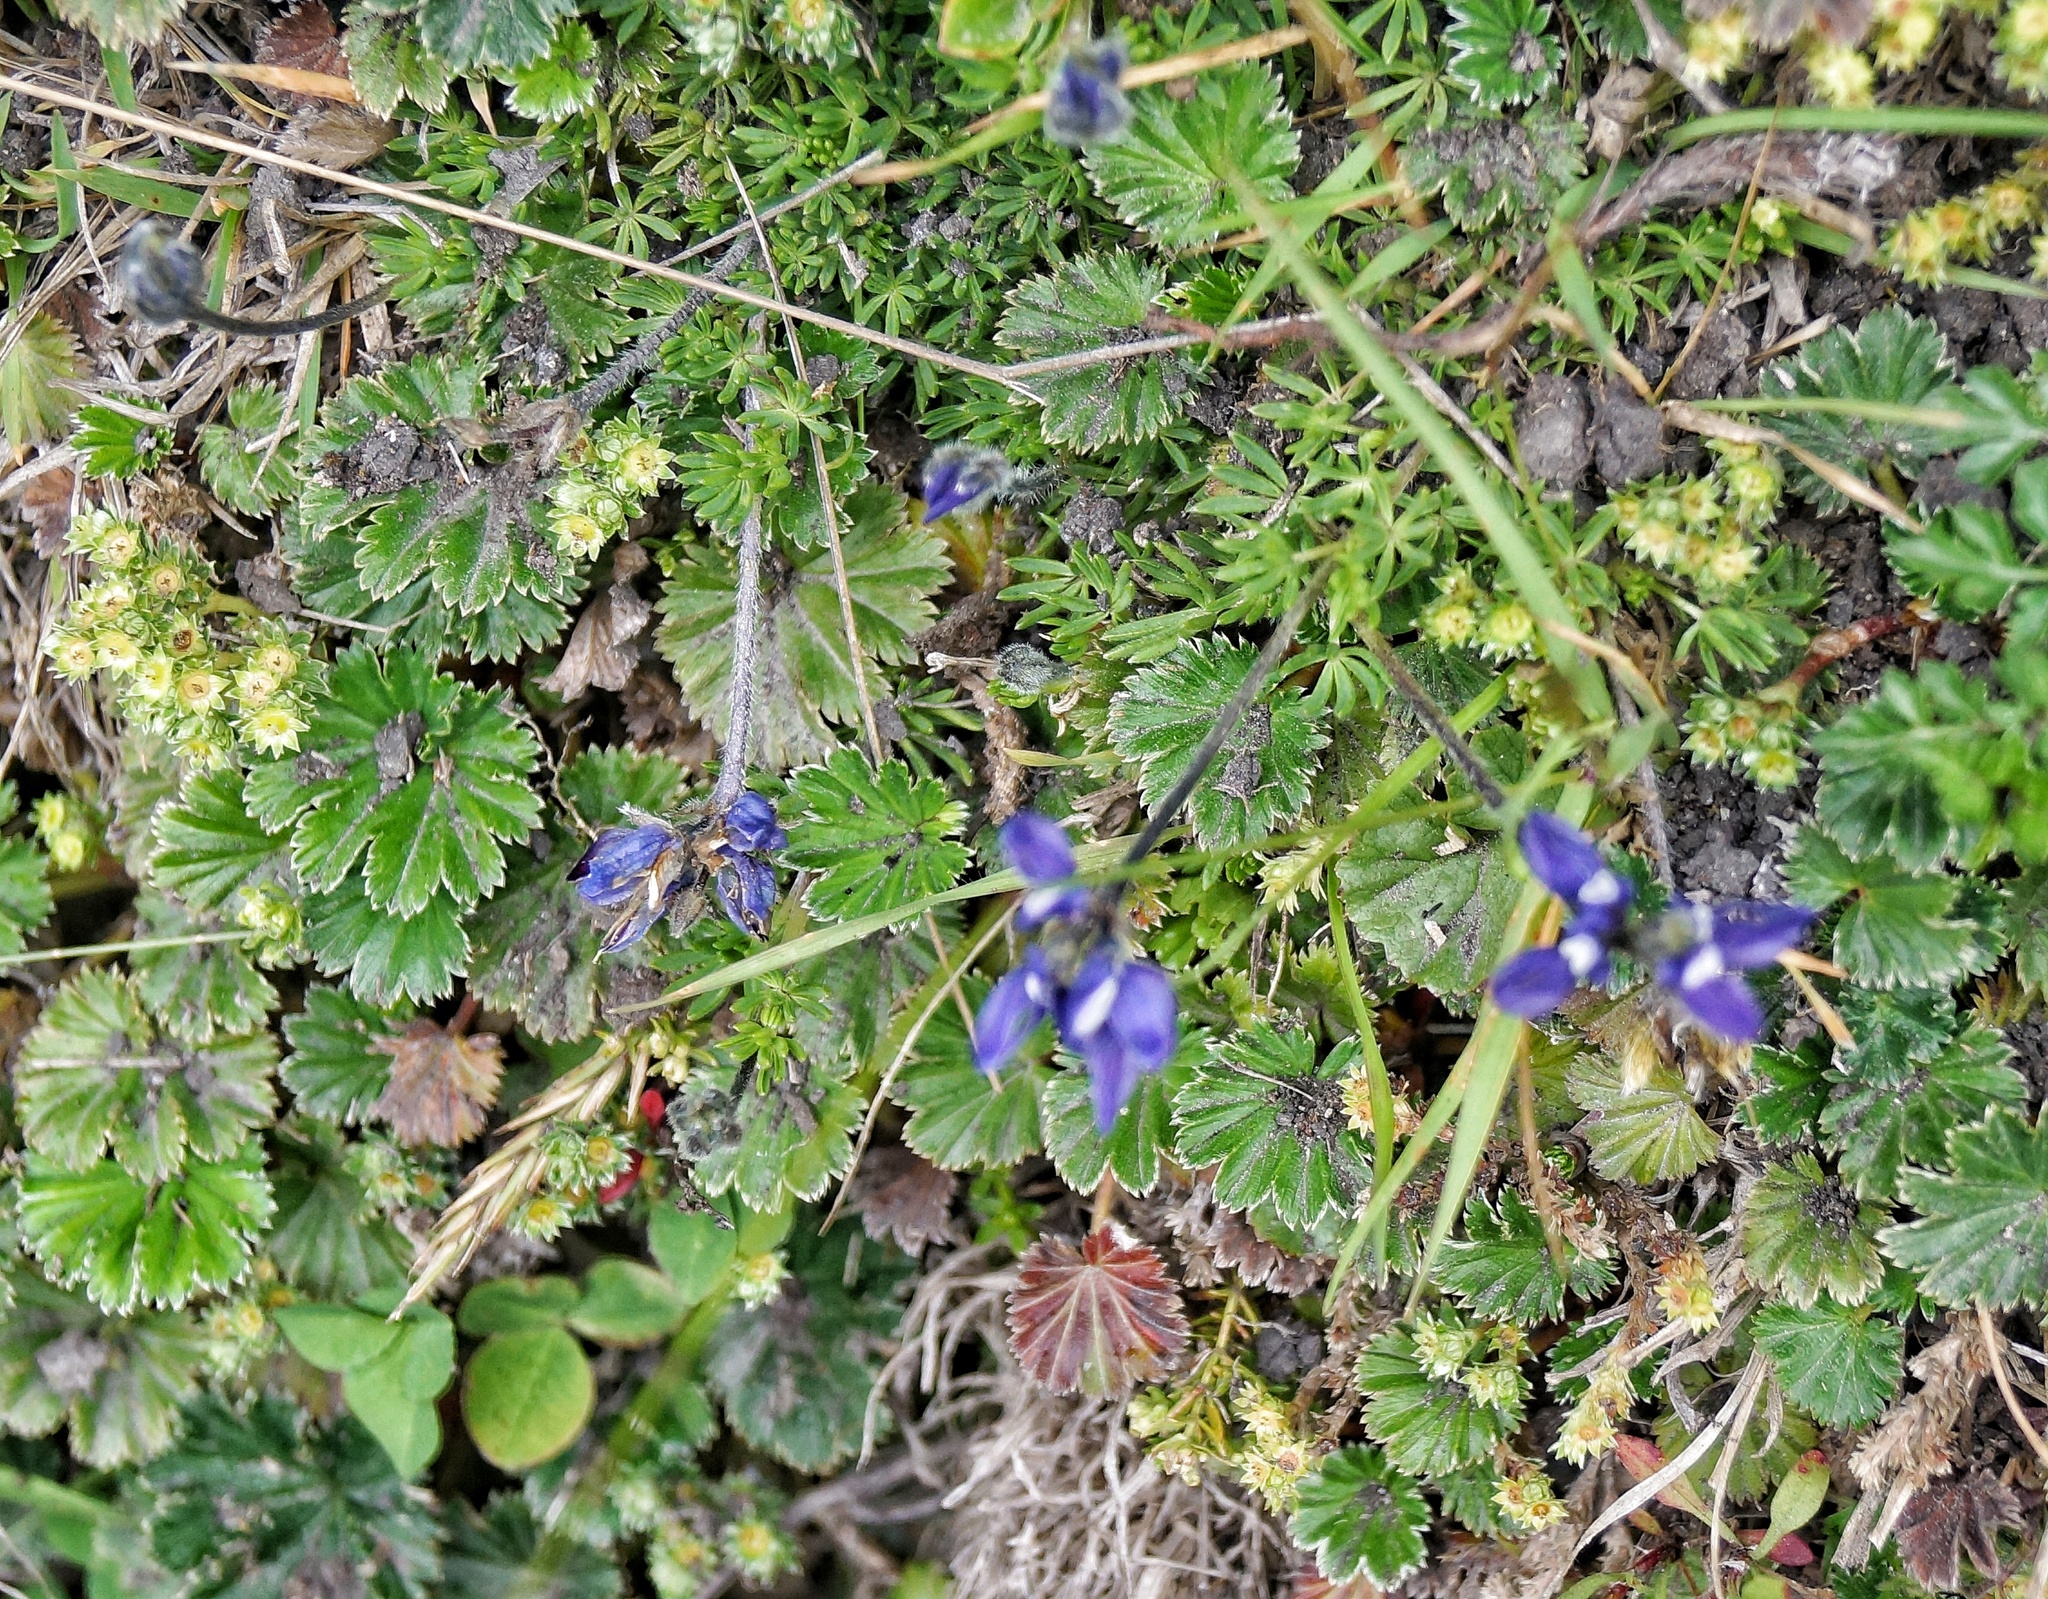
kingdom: Plantae
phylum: Tracheophyta
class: Magnoliopsida
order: Fabales
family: Fabaceae
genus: Lupinus
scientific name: Lupinus microphyllus
